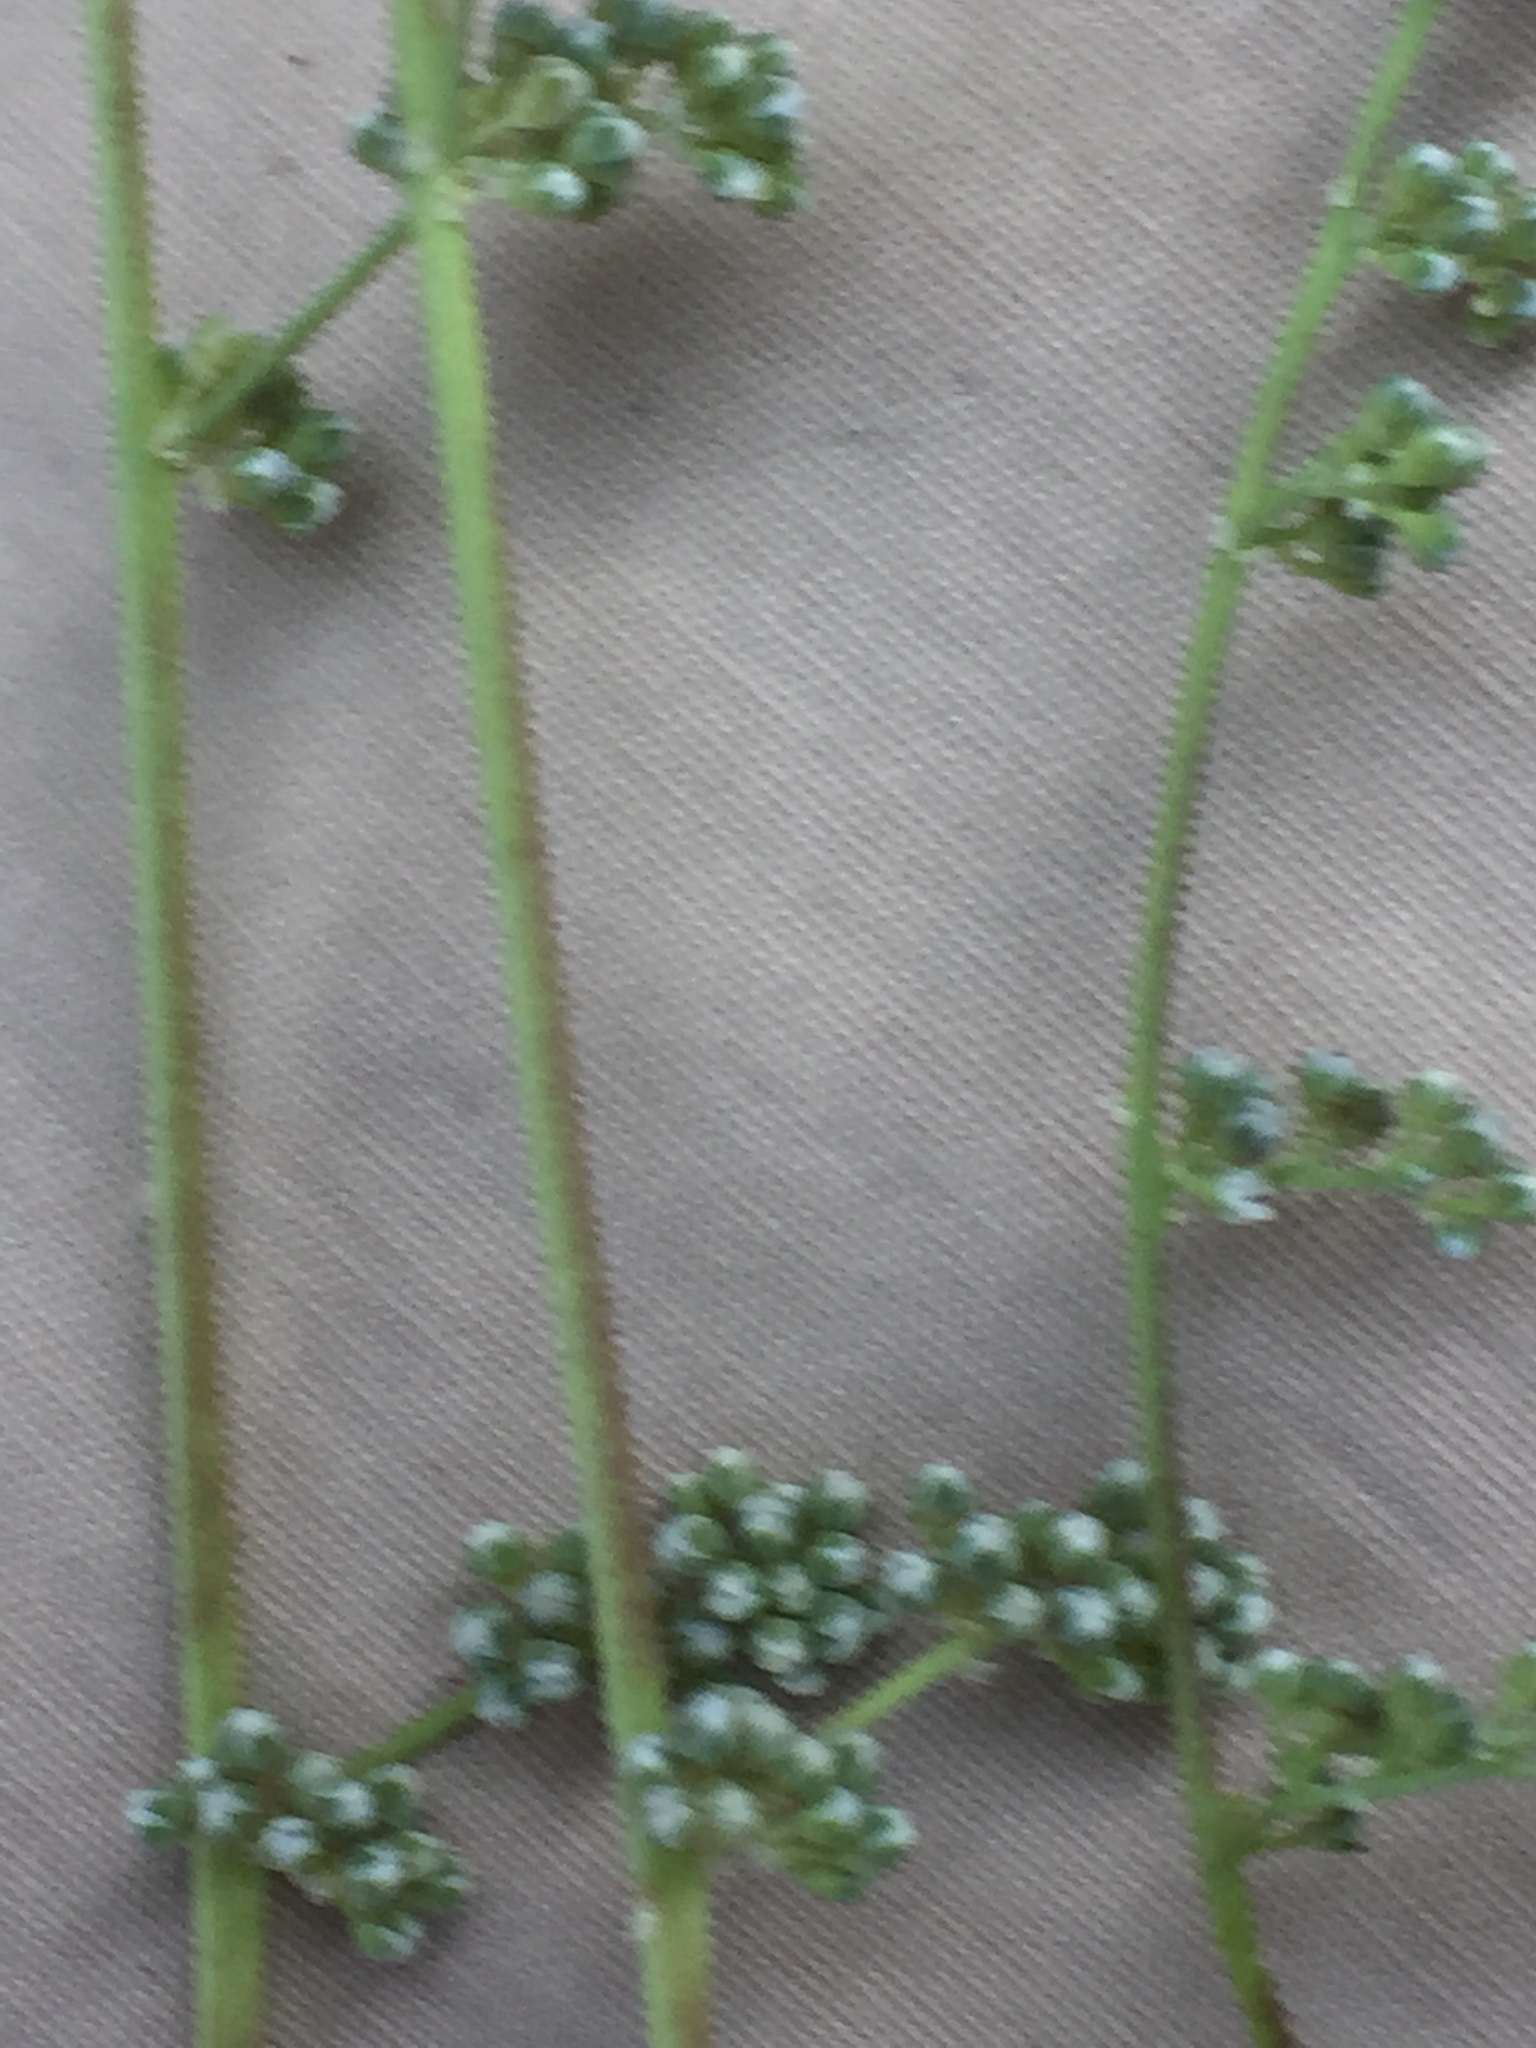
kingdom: Plantae
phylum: Tracheophyta
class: Magnoliopsida
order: Caryophyllales
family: Caryophyllaceae
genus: Corrigiola
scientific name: Corrigiola telephiifolia
